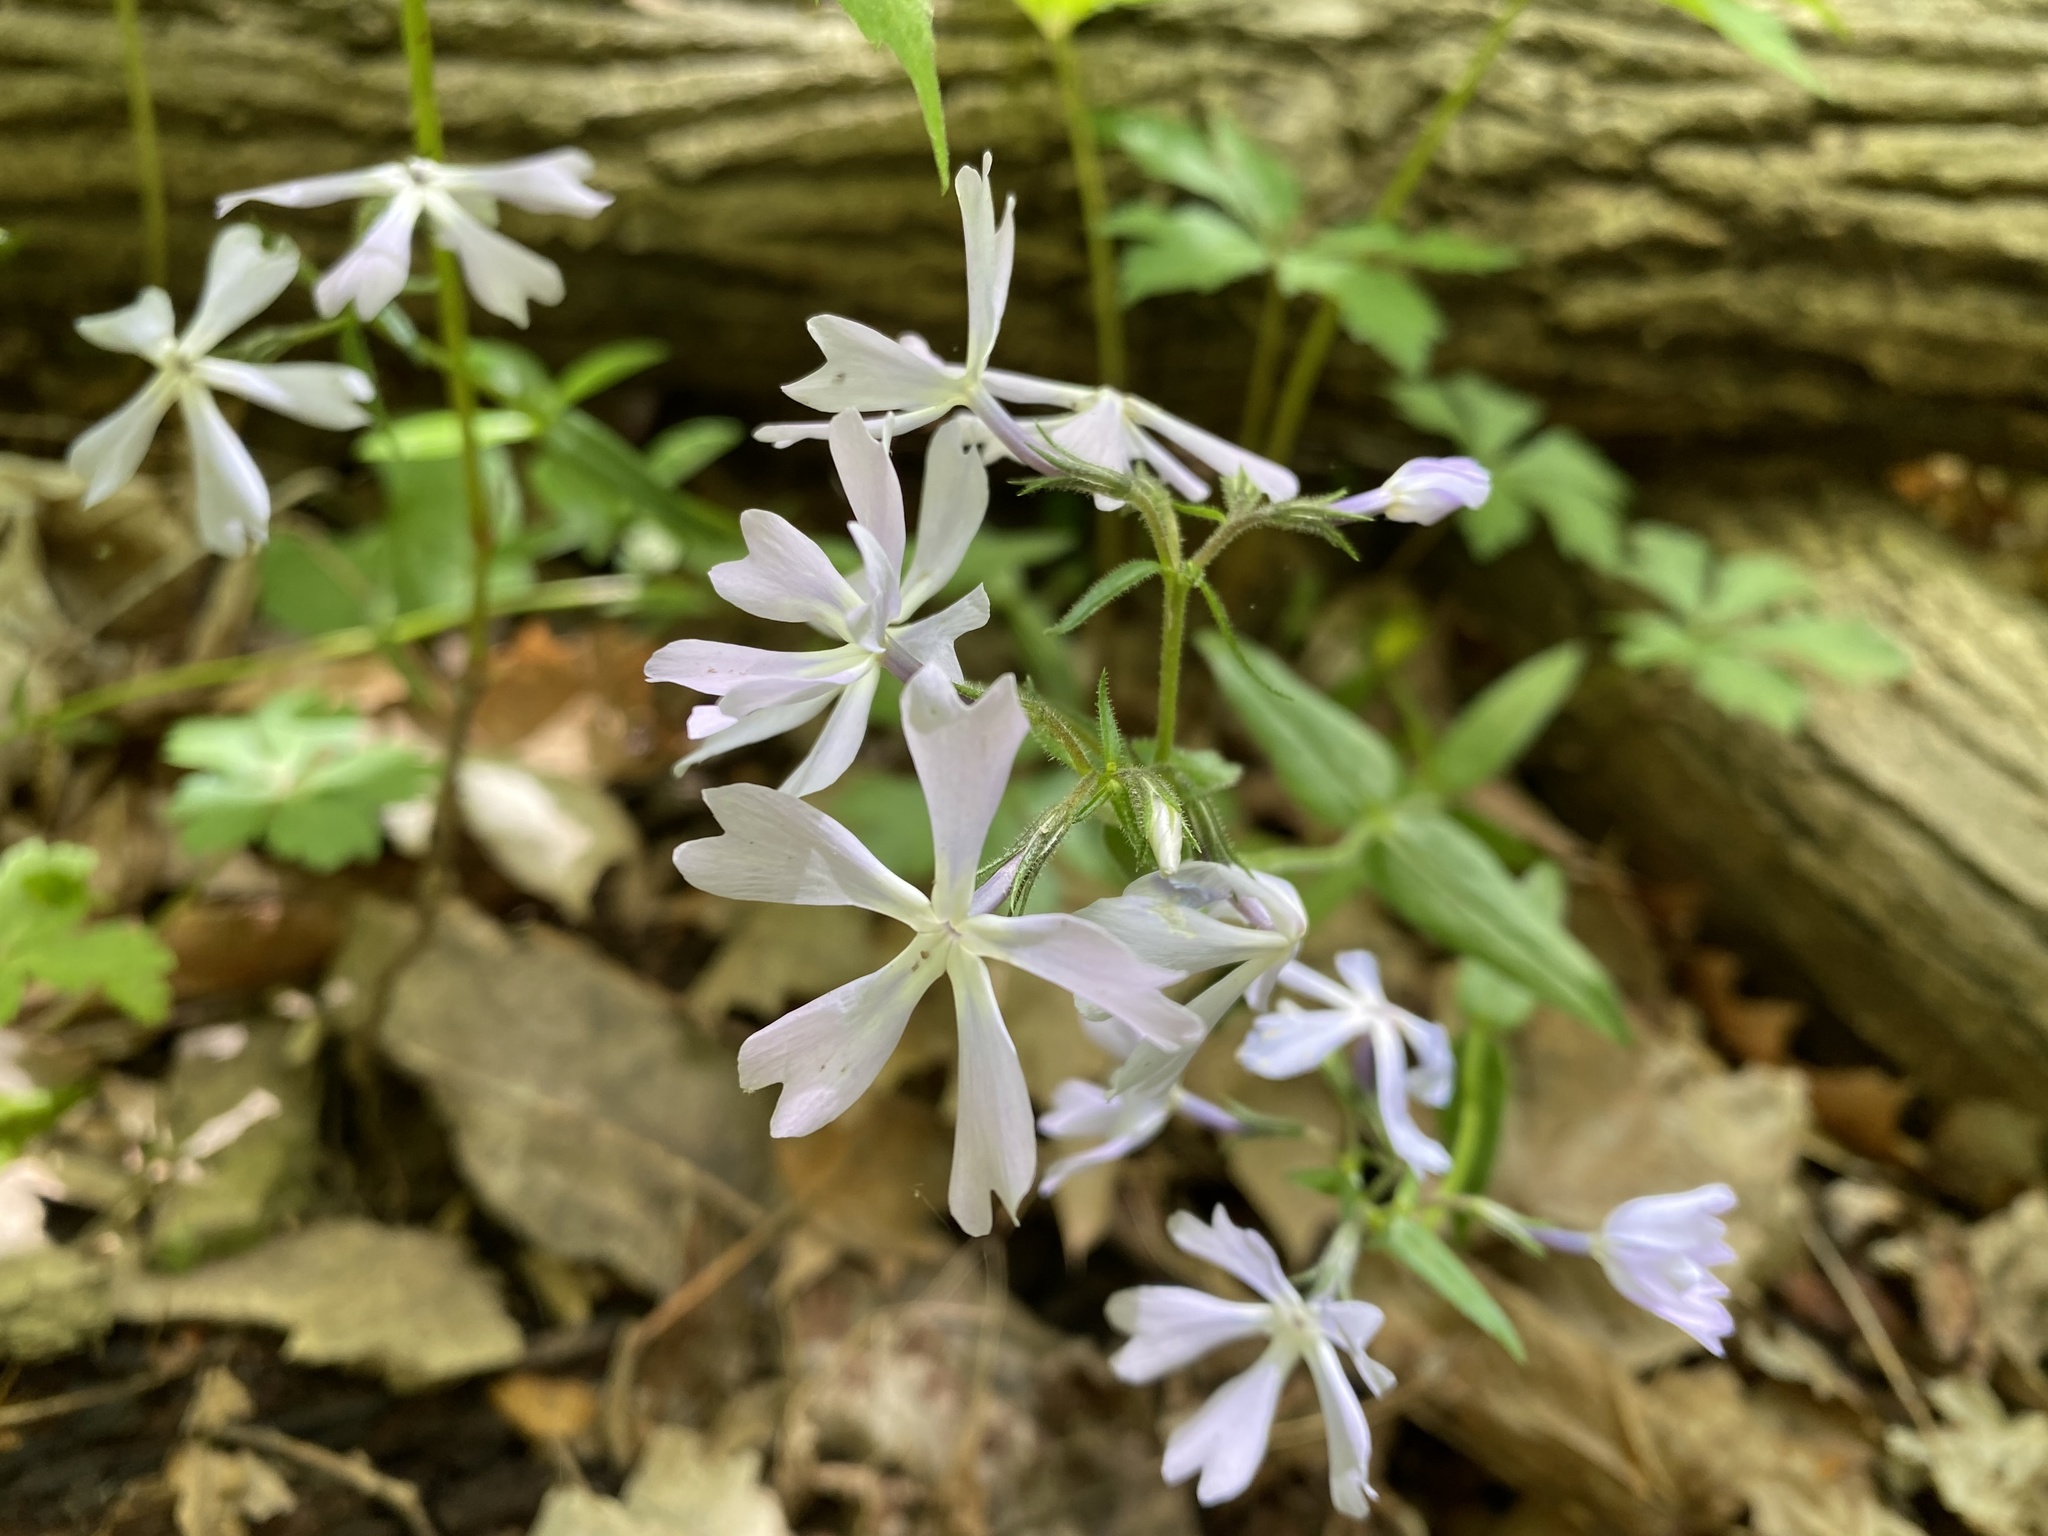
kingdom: Plantae
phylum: Tracheophyta
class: Magnoliopsida
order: Ericales
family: Polemoniaceae
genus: Phlox
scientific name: Phlox divaricata
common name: Blue phlox
